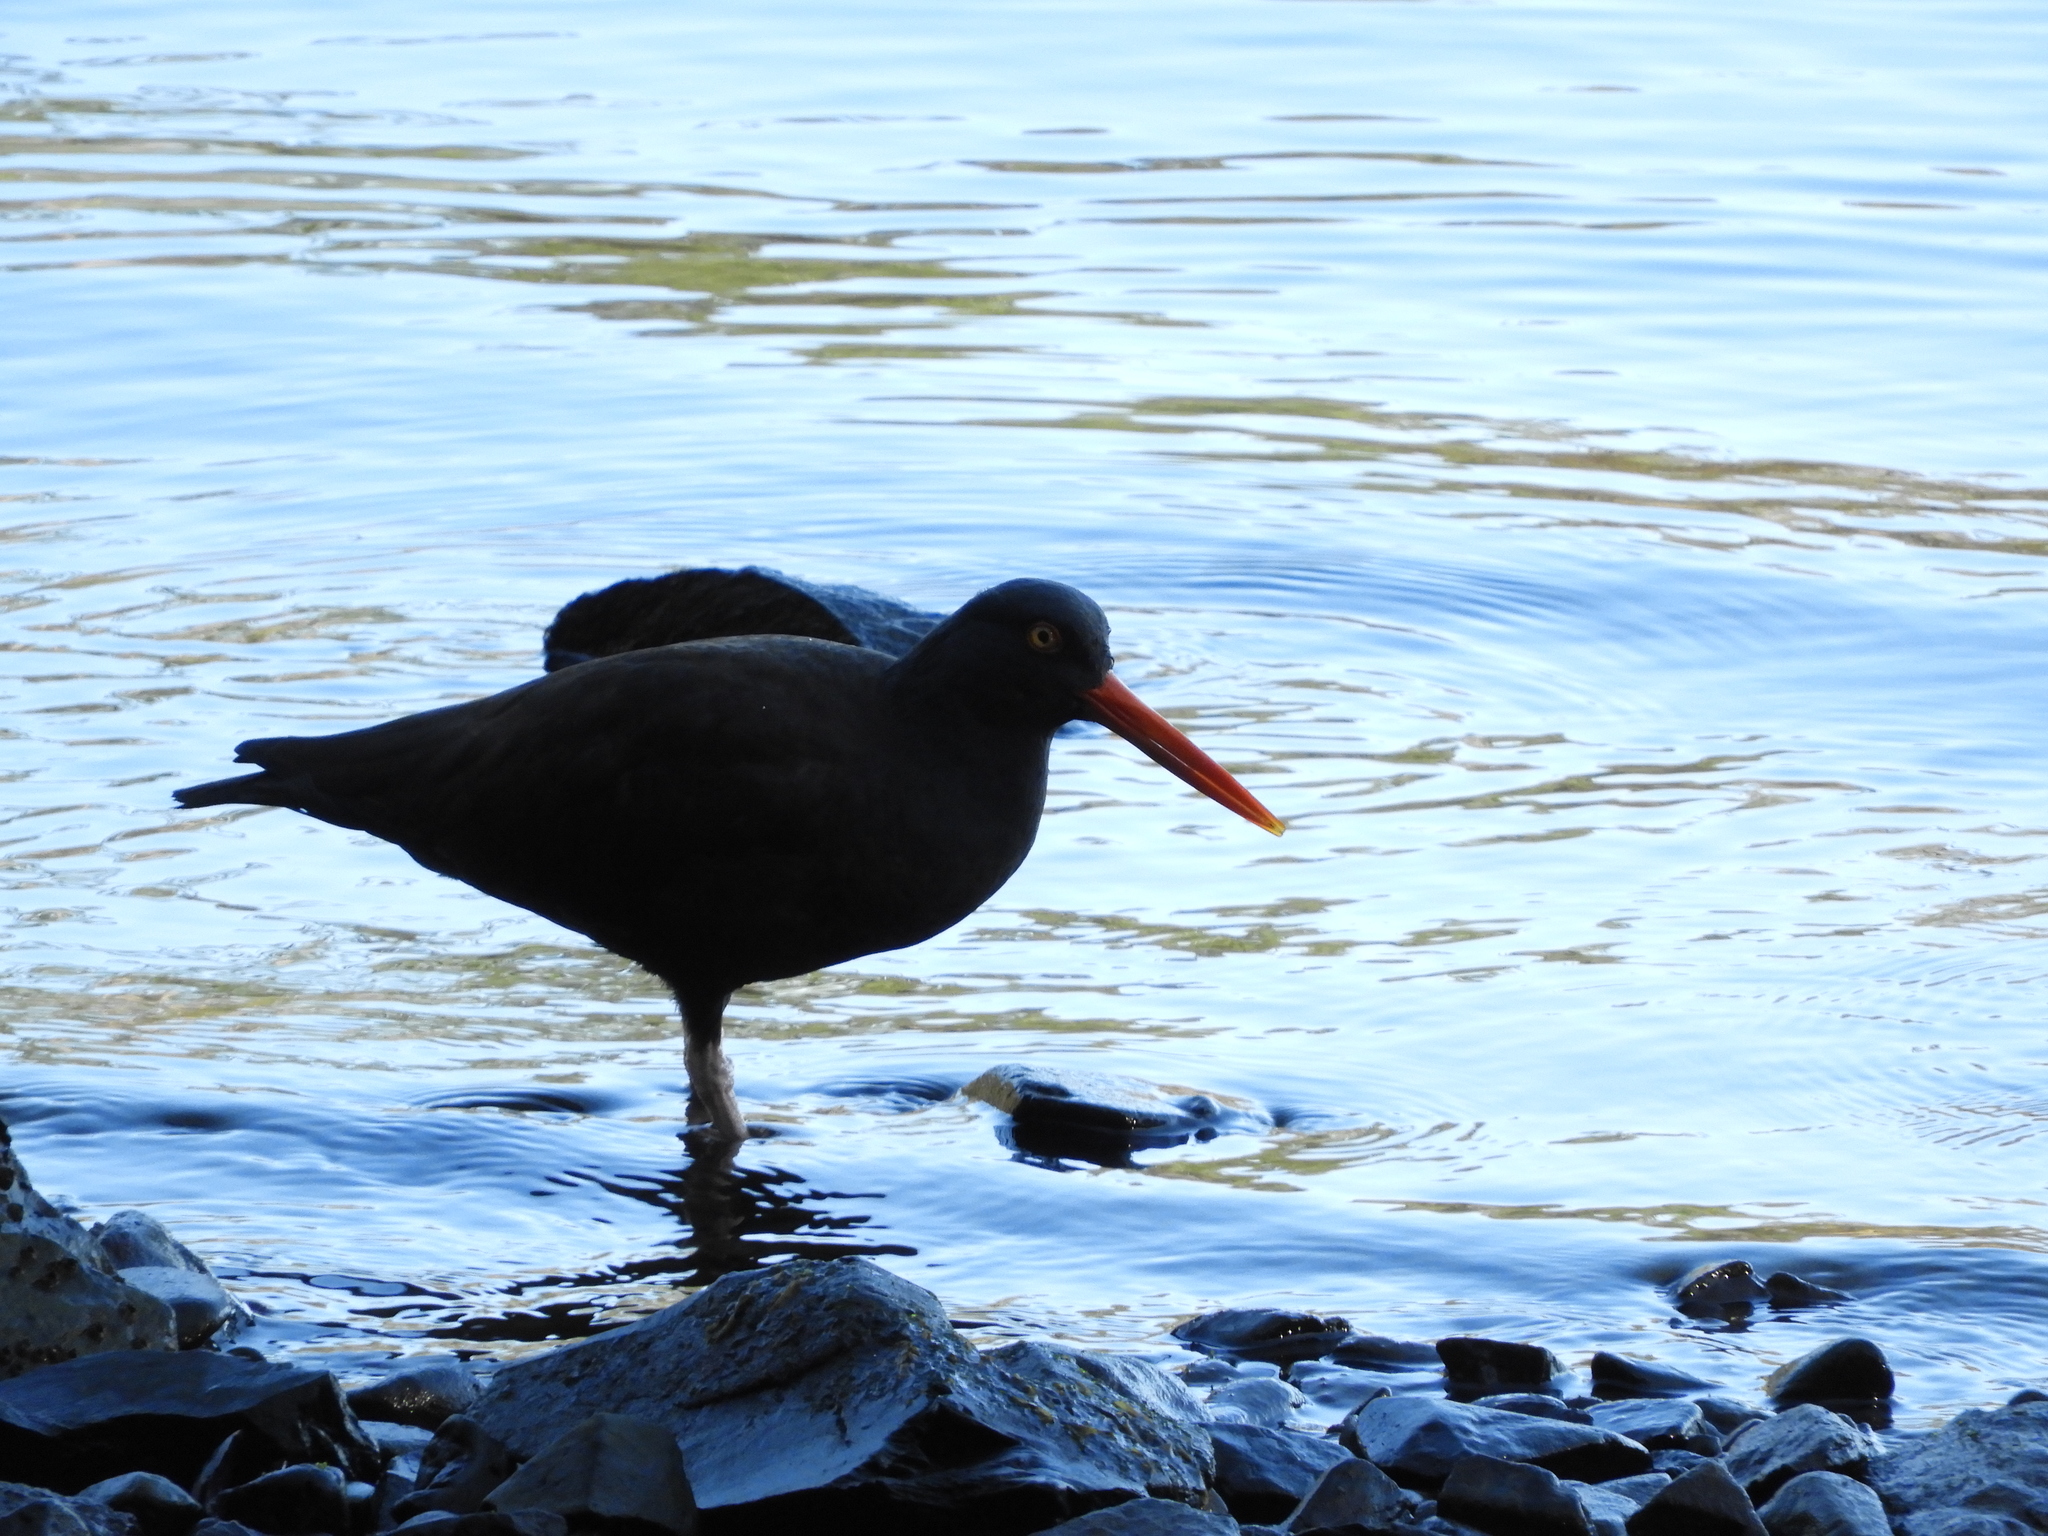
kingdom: Animalia
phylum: Chordata
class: Aves
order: Charadriiformes
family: Haematopodidae
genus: Haematopus
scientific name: Haematopus bachmani
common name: Black oystercatcher
